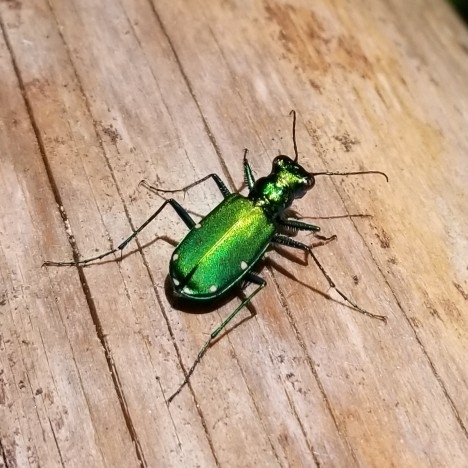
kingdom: Animalia
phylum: Arthropoda
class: Insecta
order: Coleoptera
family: Carabidae
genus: Cicindela
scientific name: Cicindela sexguttata
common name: Six-spotted tiger beetle
